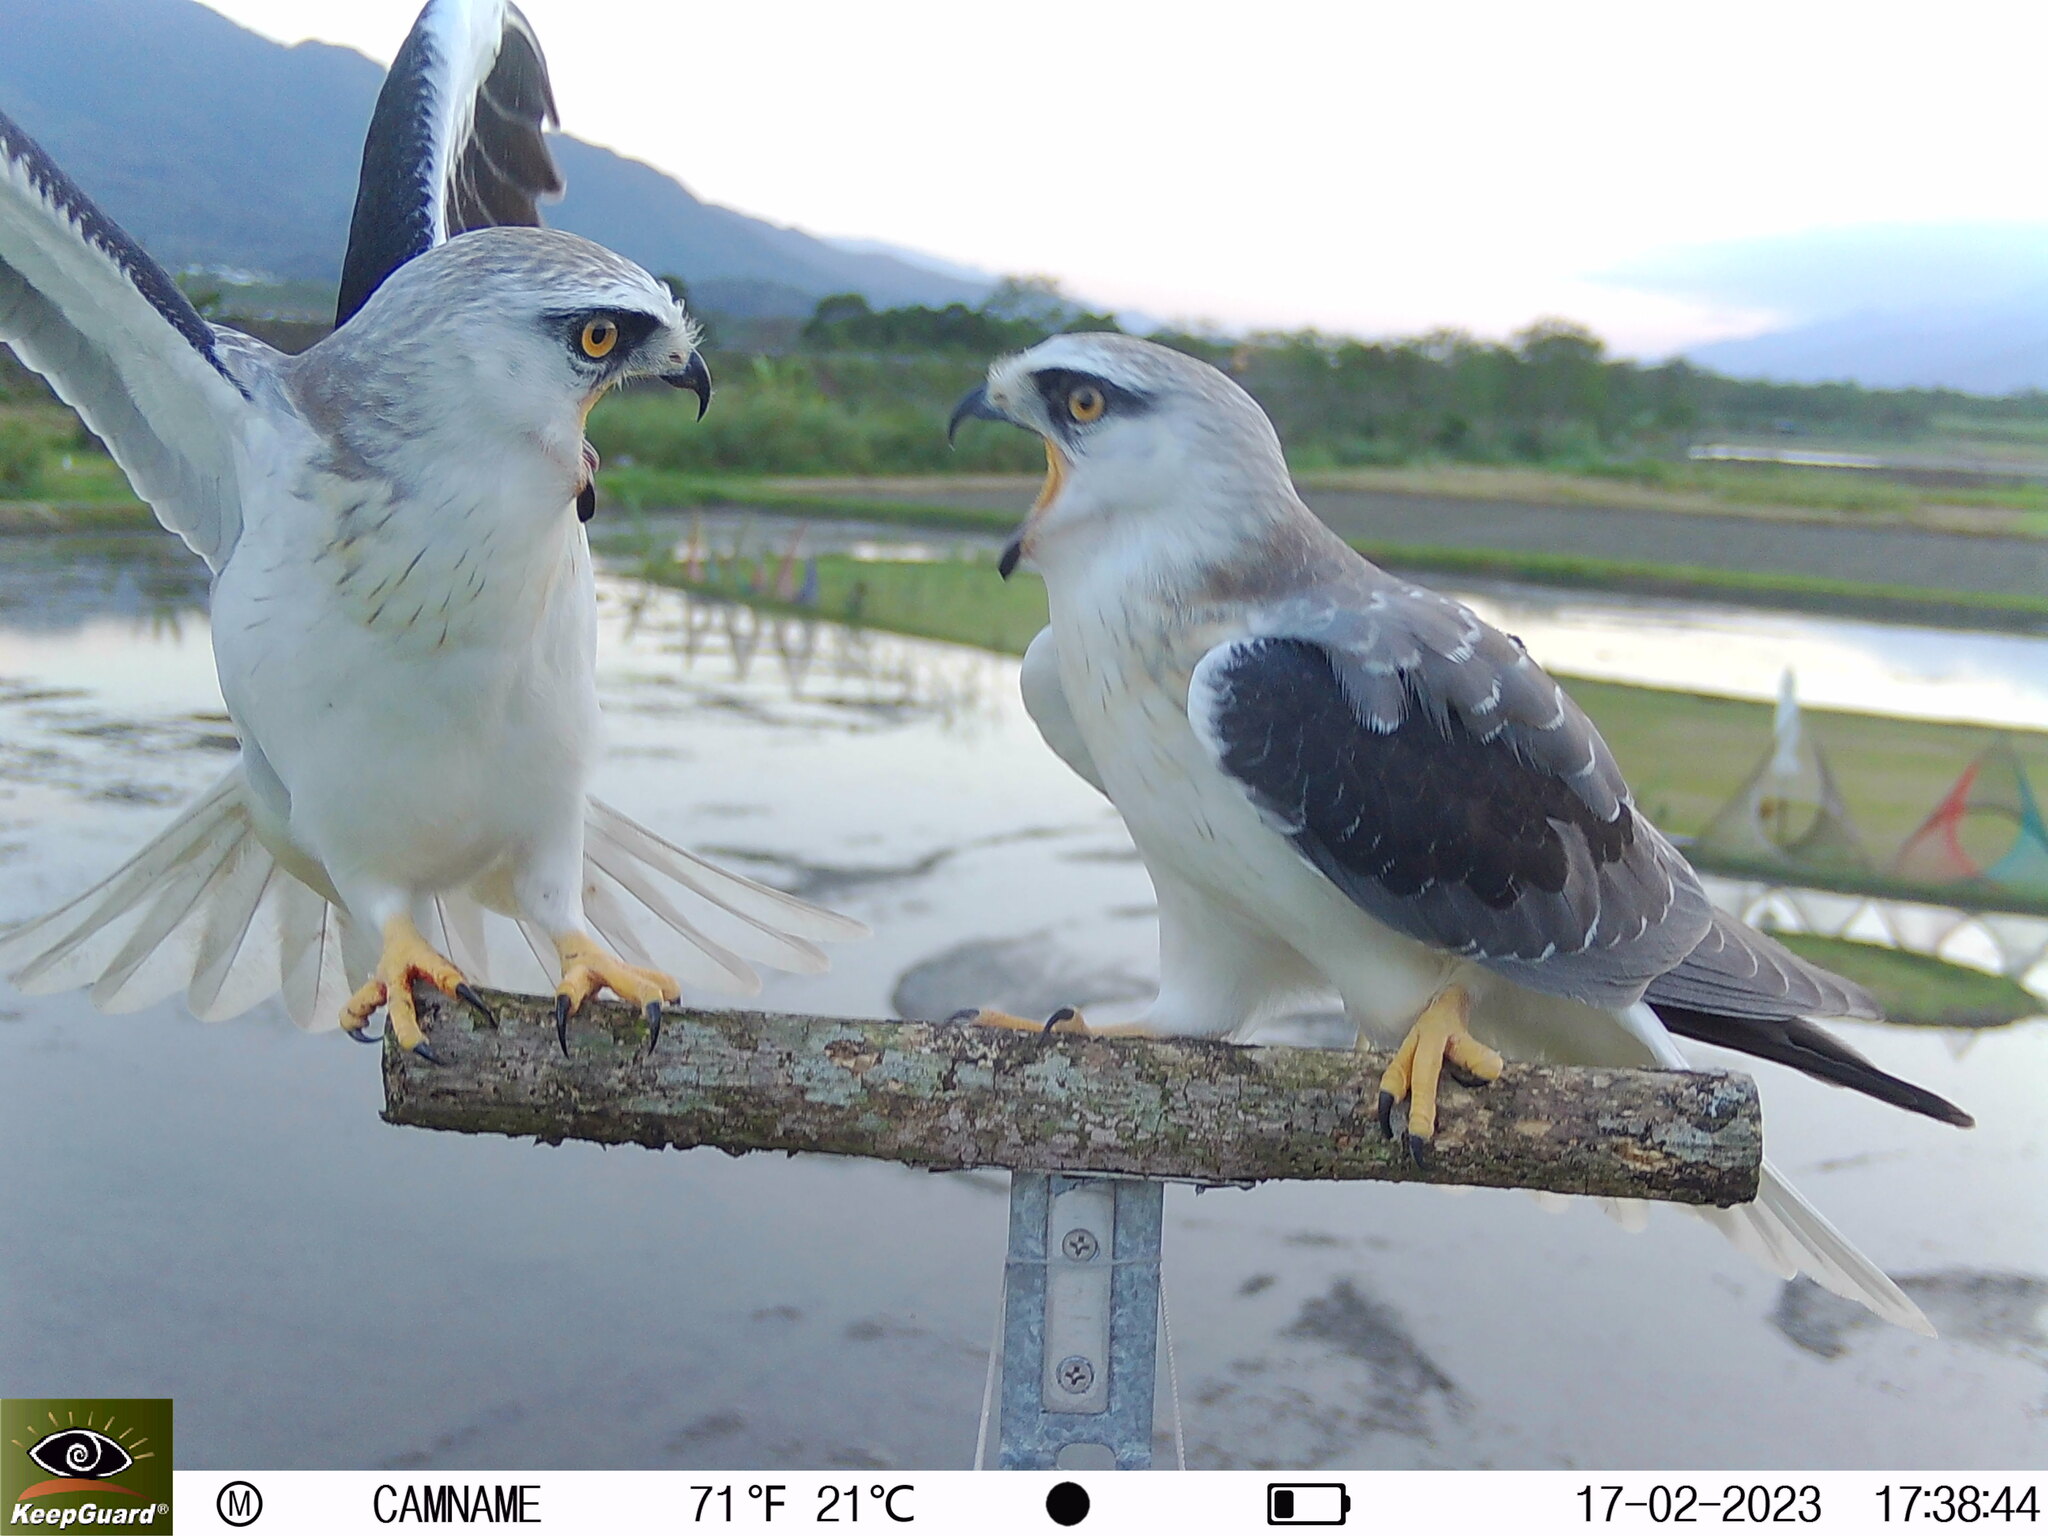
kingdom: Animalia
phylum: Chordata
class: Aves
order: Accipitriformes
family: Accipitridae
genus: Elanus
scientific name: Elanus caeruleus
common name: Black-winged kite
